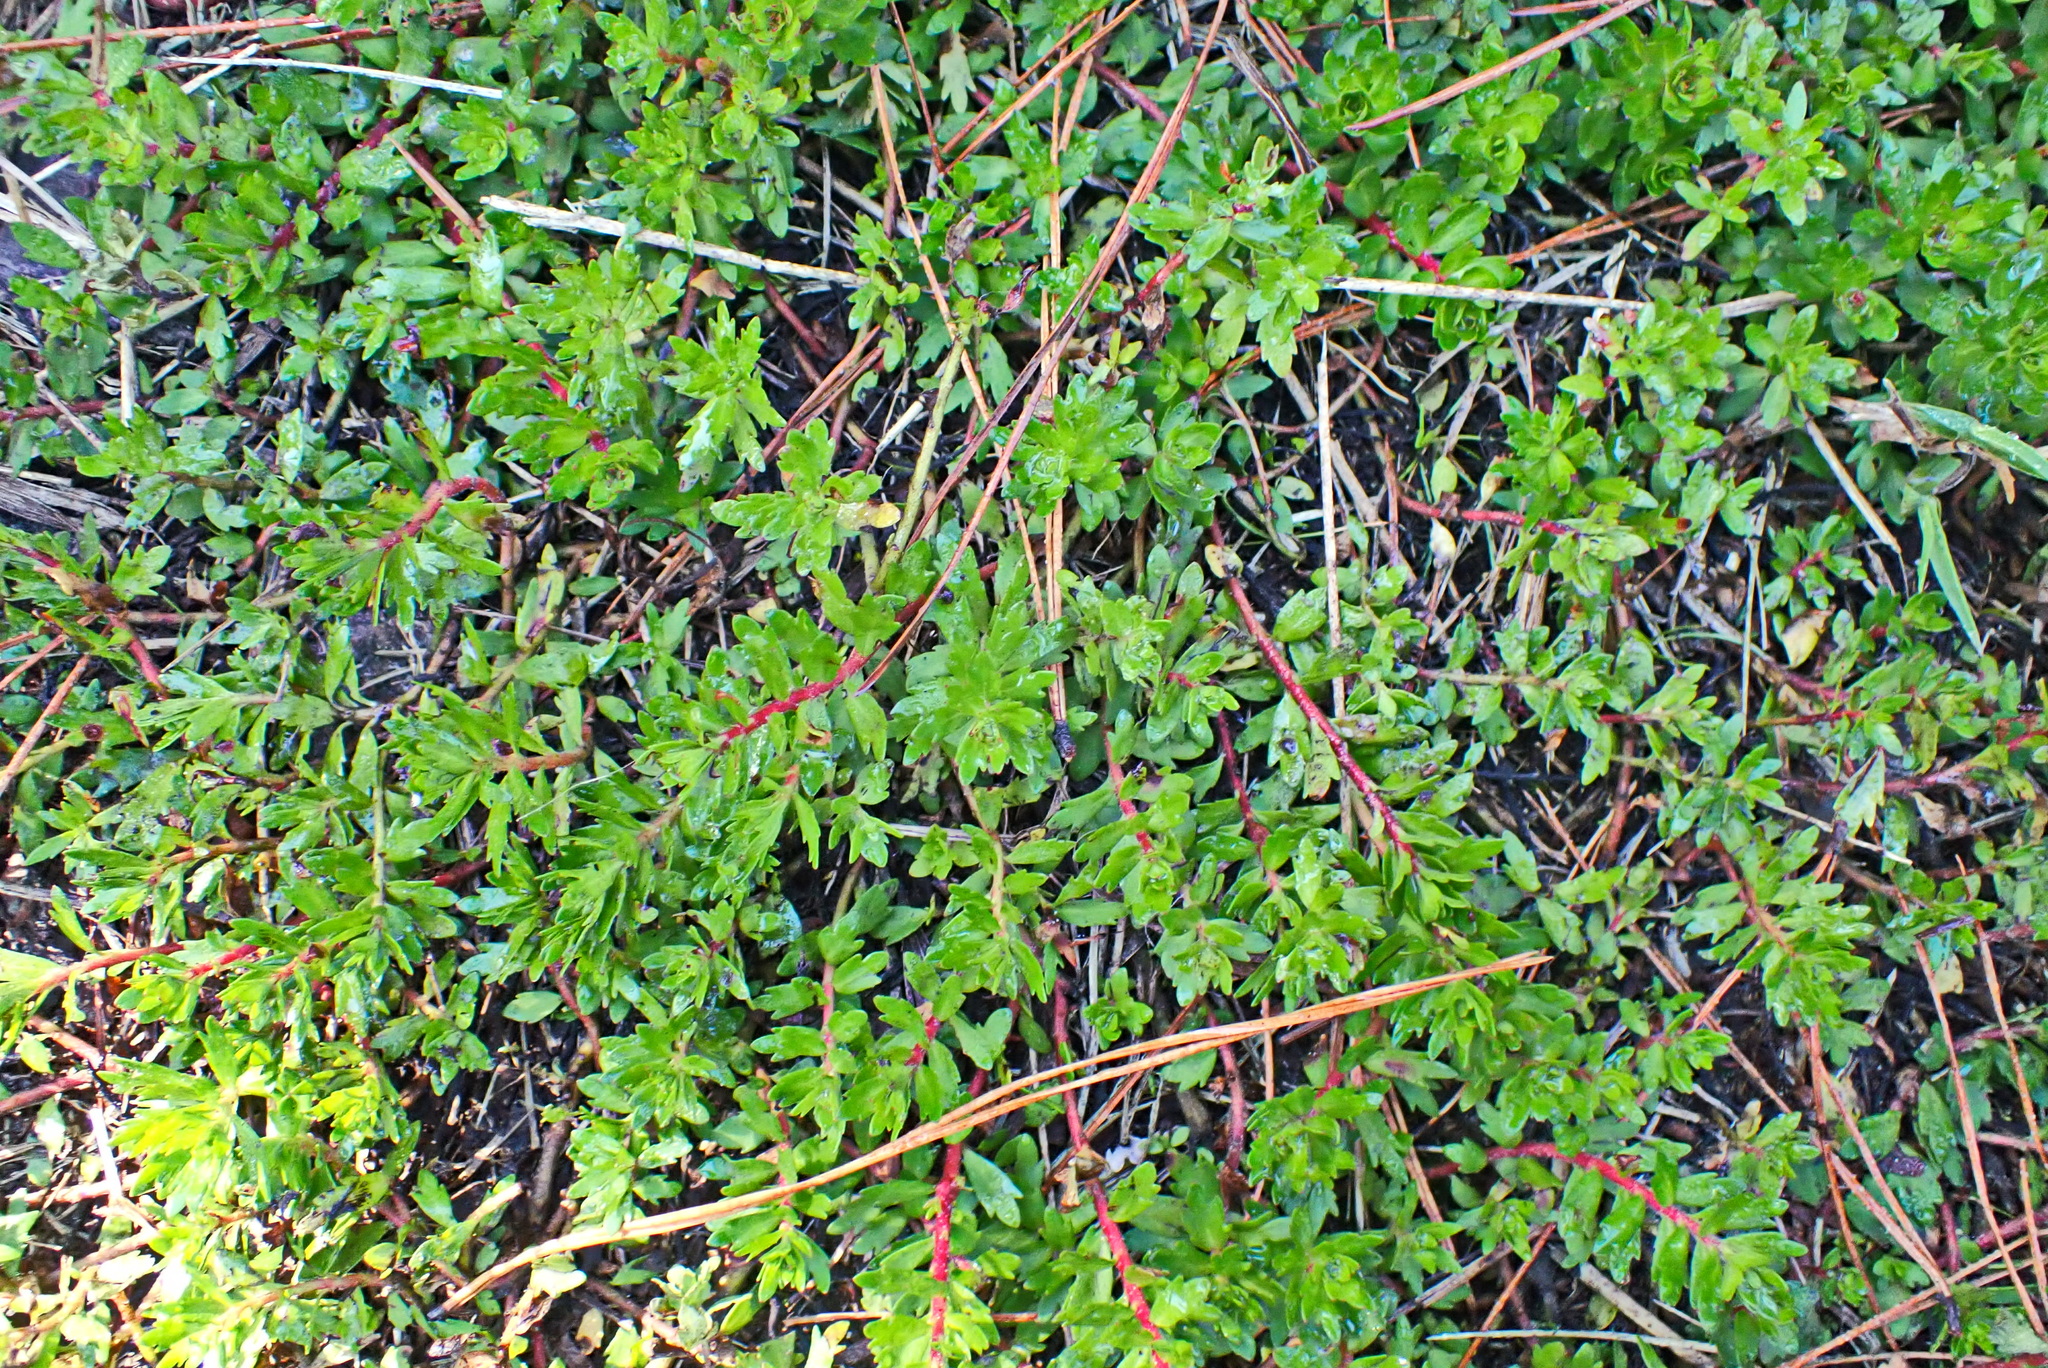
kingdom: Plantae
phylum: Tracheophyta
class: Magnoliopsida
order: Saxifragales
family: Haloragaceae
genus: Laurembergia
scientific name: Laurembergia repens
